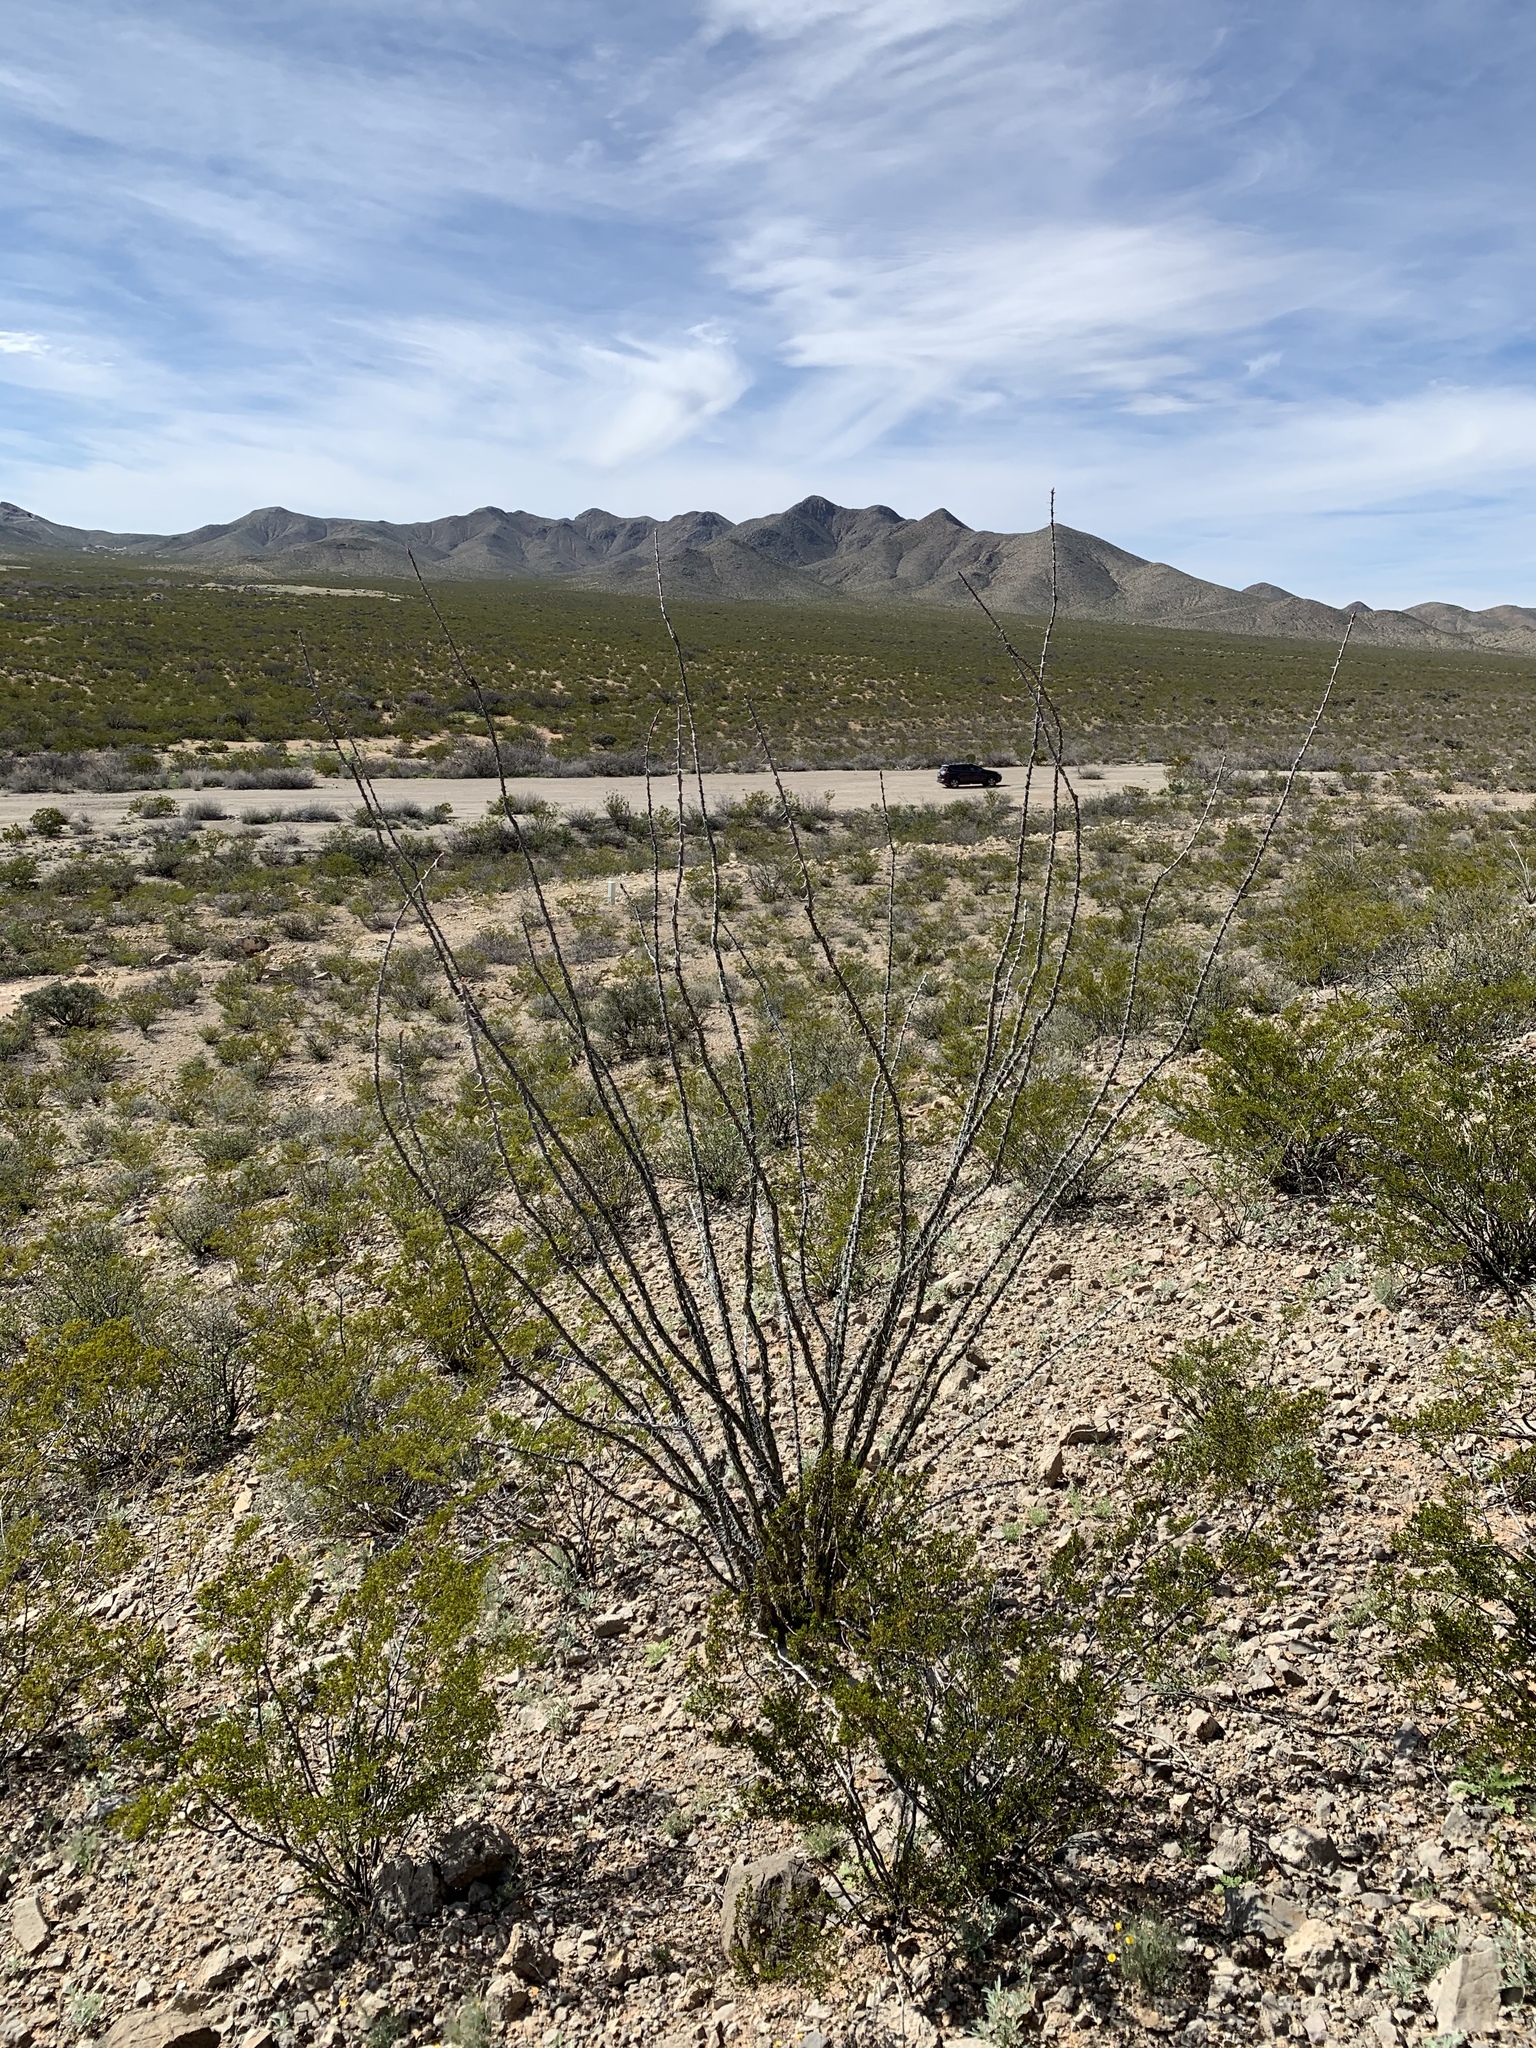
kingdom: Plantae
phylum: Tracheophyta
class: Magnoliopsida
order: Ericales
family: Fouquieriaceae
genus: Fouquieria
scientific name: Fouquieria splendens
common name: Vine-cactus
